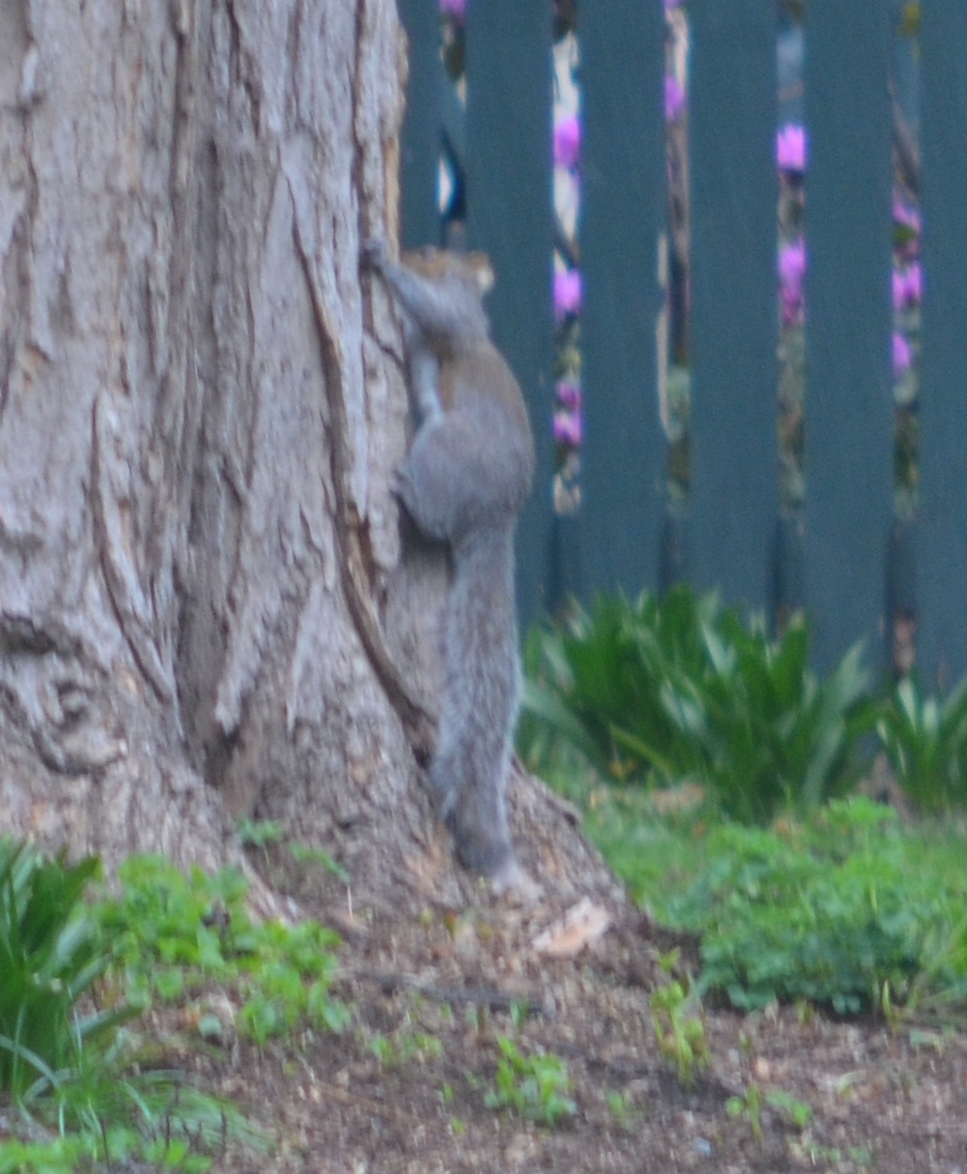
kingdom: Animalia
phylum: Chordata
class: Mammalia
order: Rodentia
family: Sciuridae
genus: Sciurus
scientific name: Sciurus carolinensis
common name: Eastern gray squirrel
